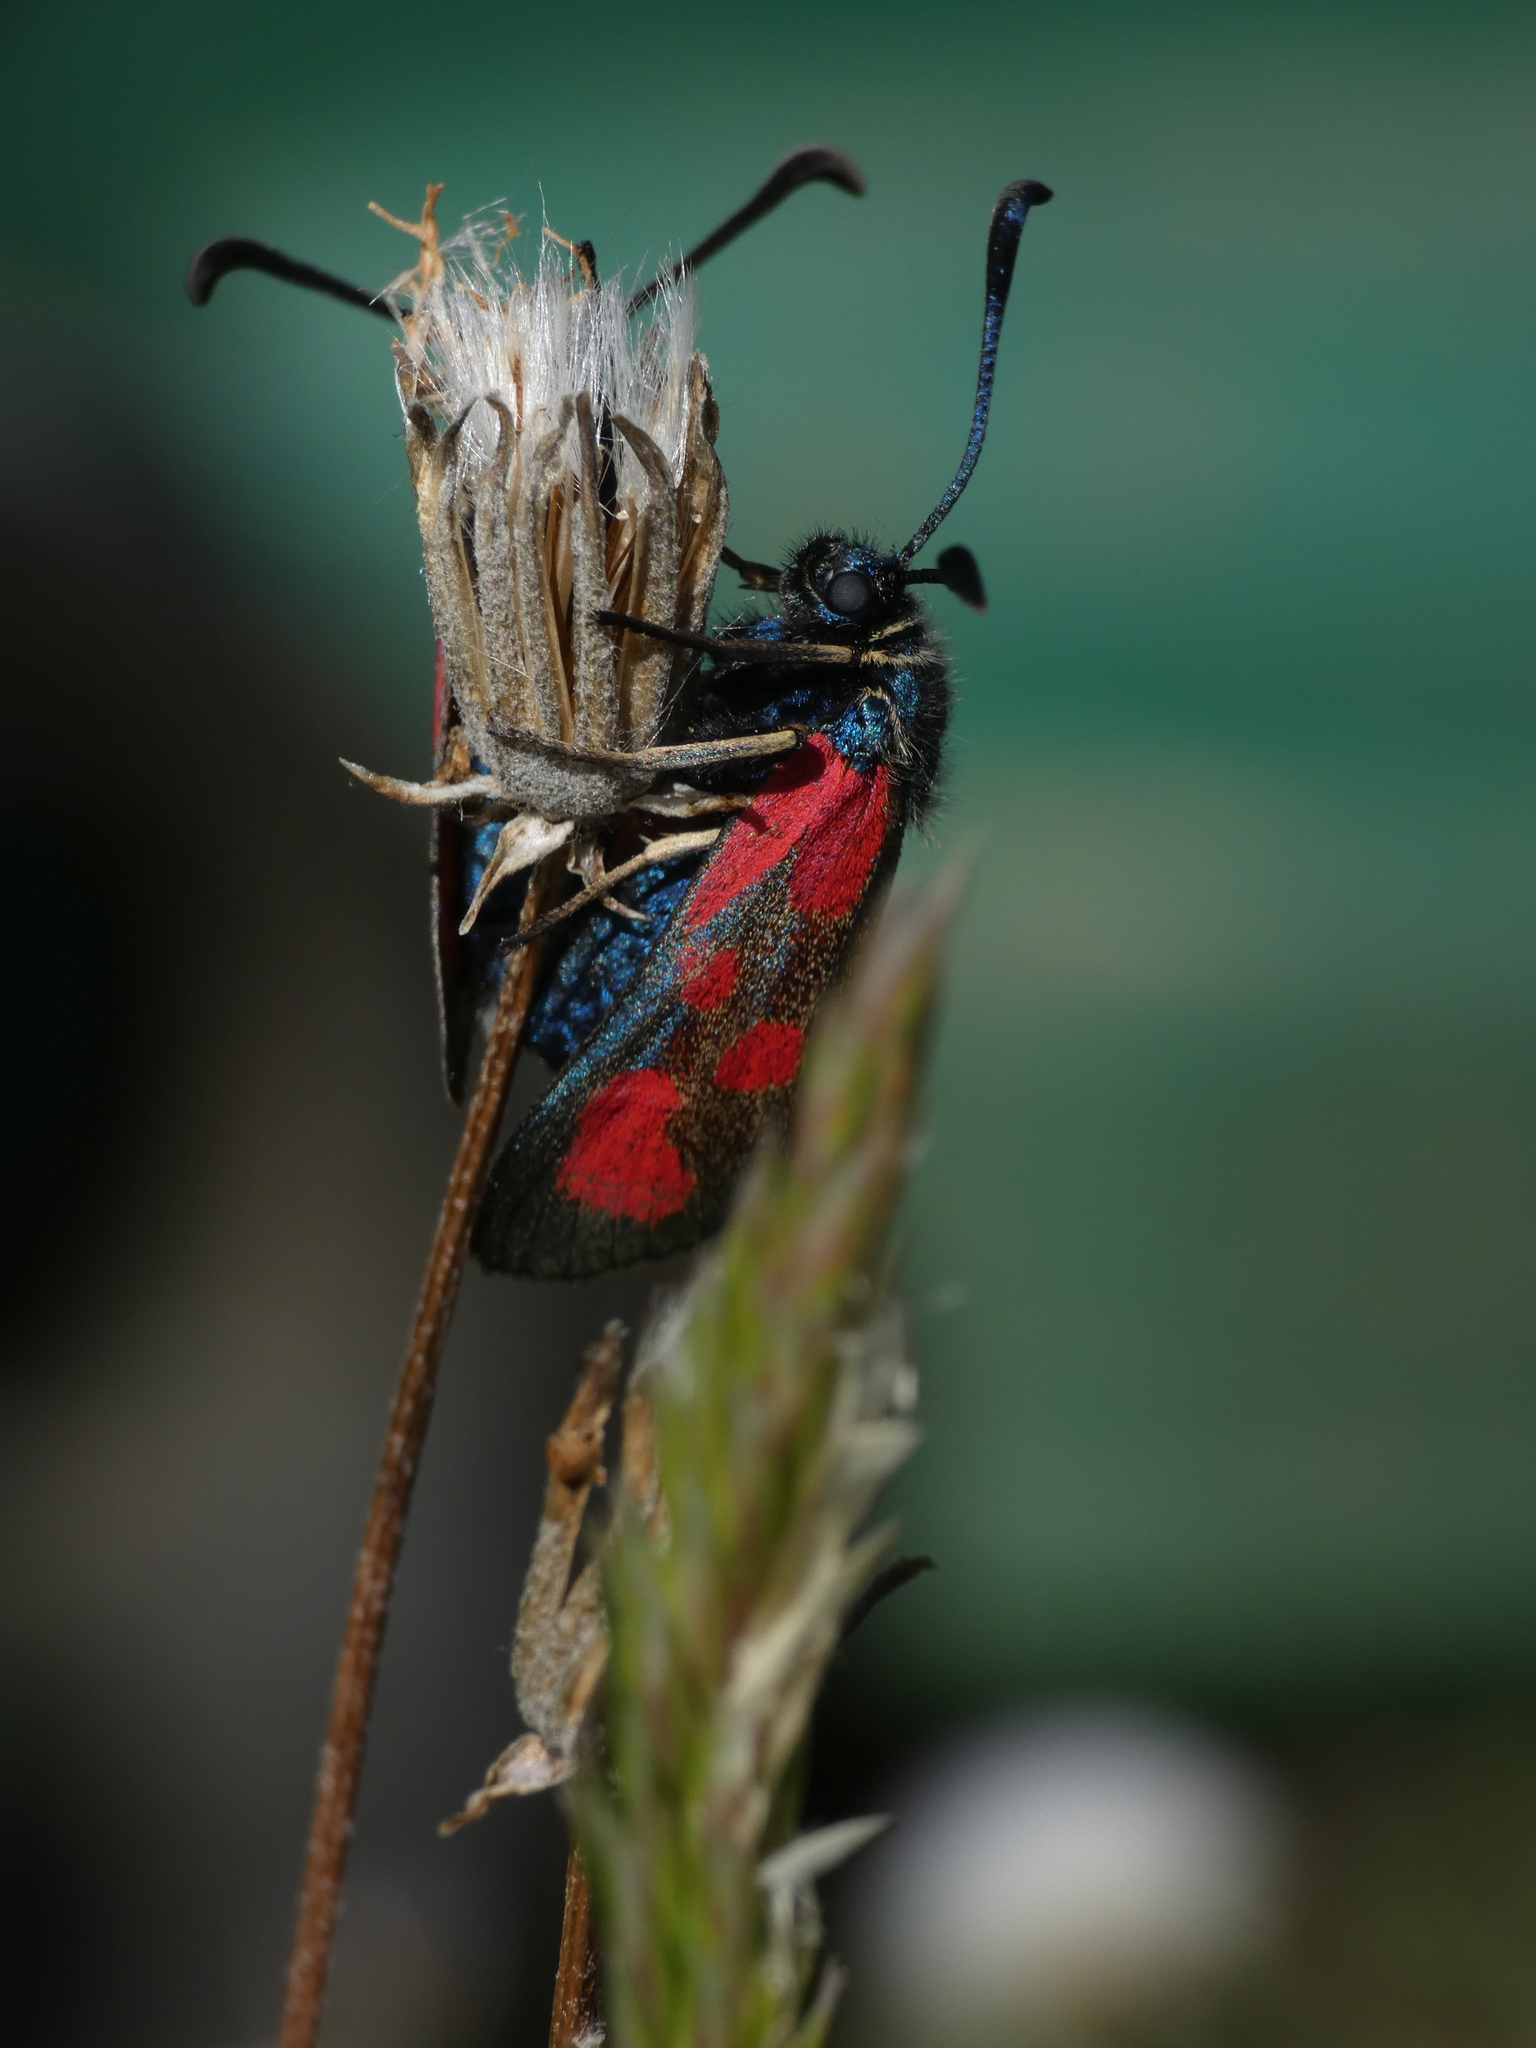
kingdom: Animalia
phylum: Arthropoda
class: Insecta
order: Lepidoptera
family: Zygaenidae
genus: Zygaena
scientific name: Zygaena loti
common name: Slender scotch burnet
